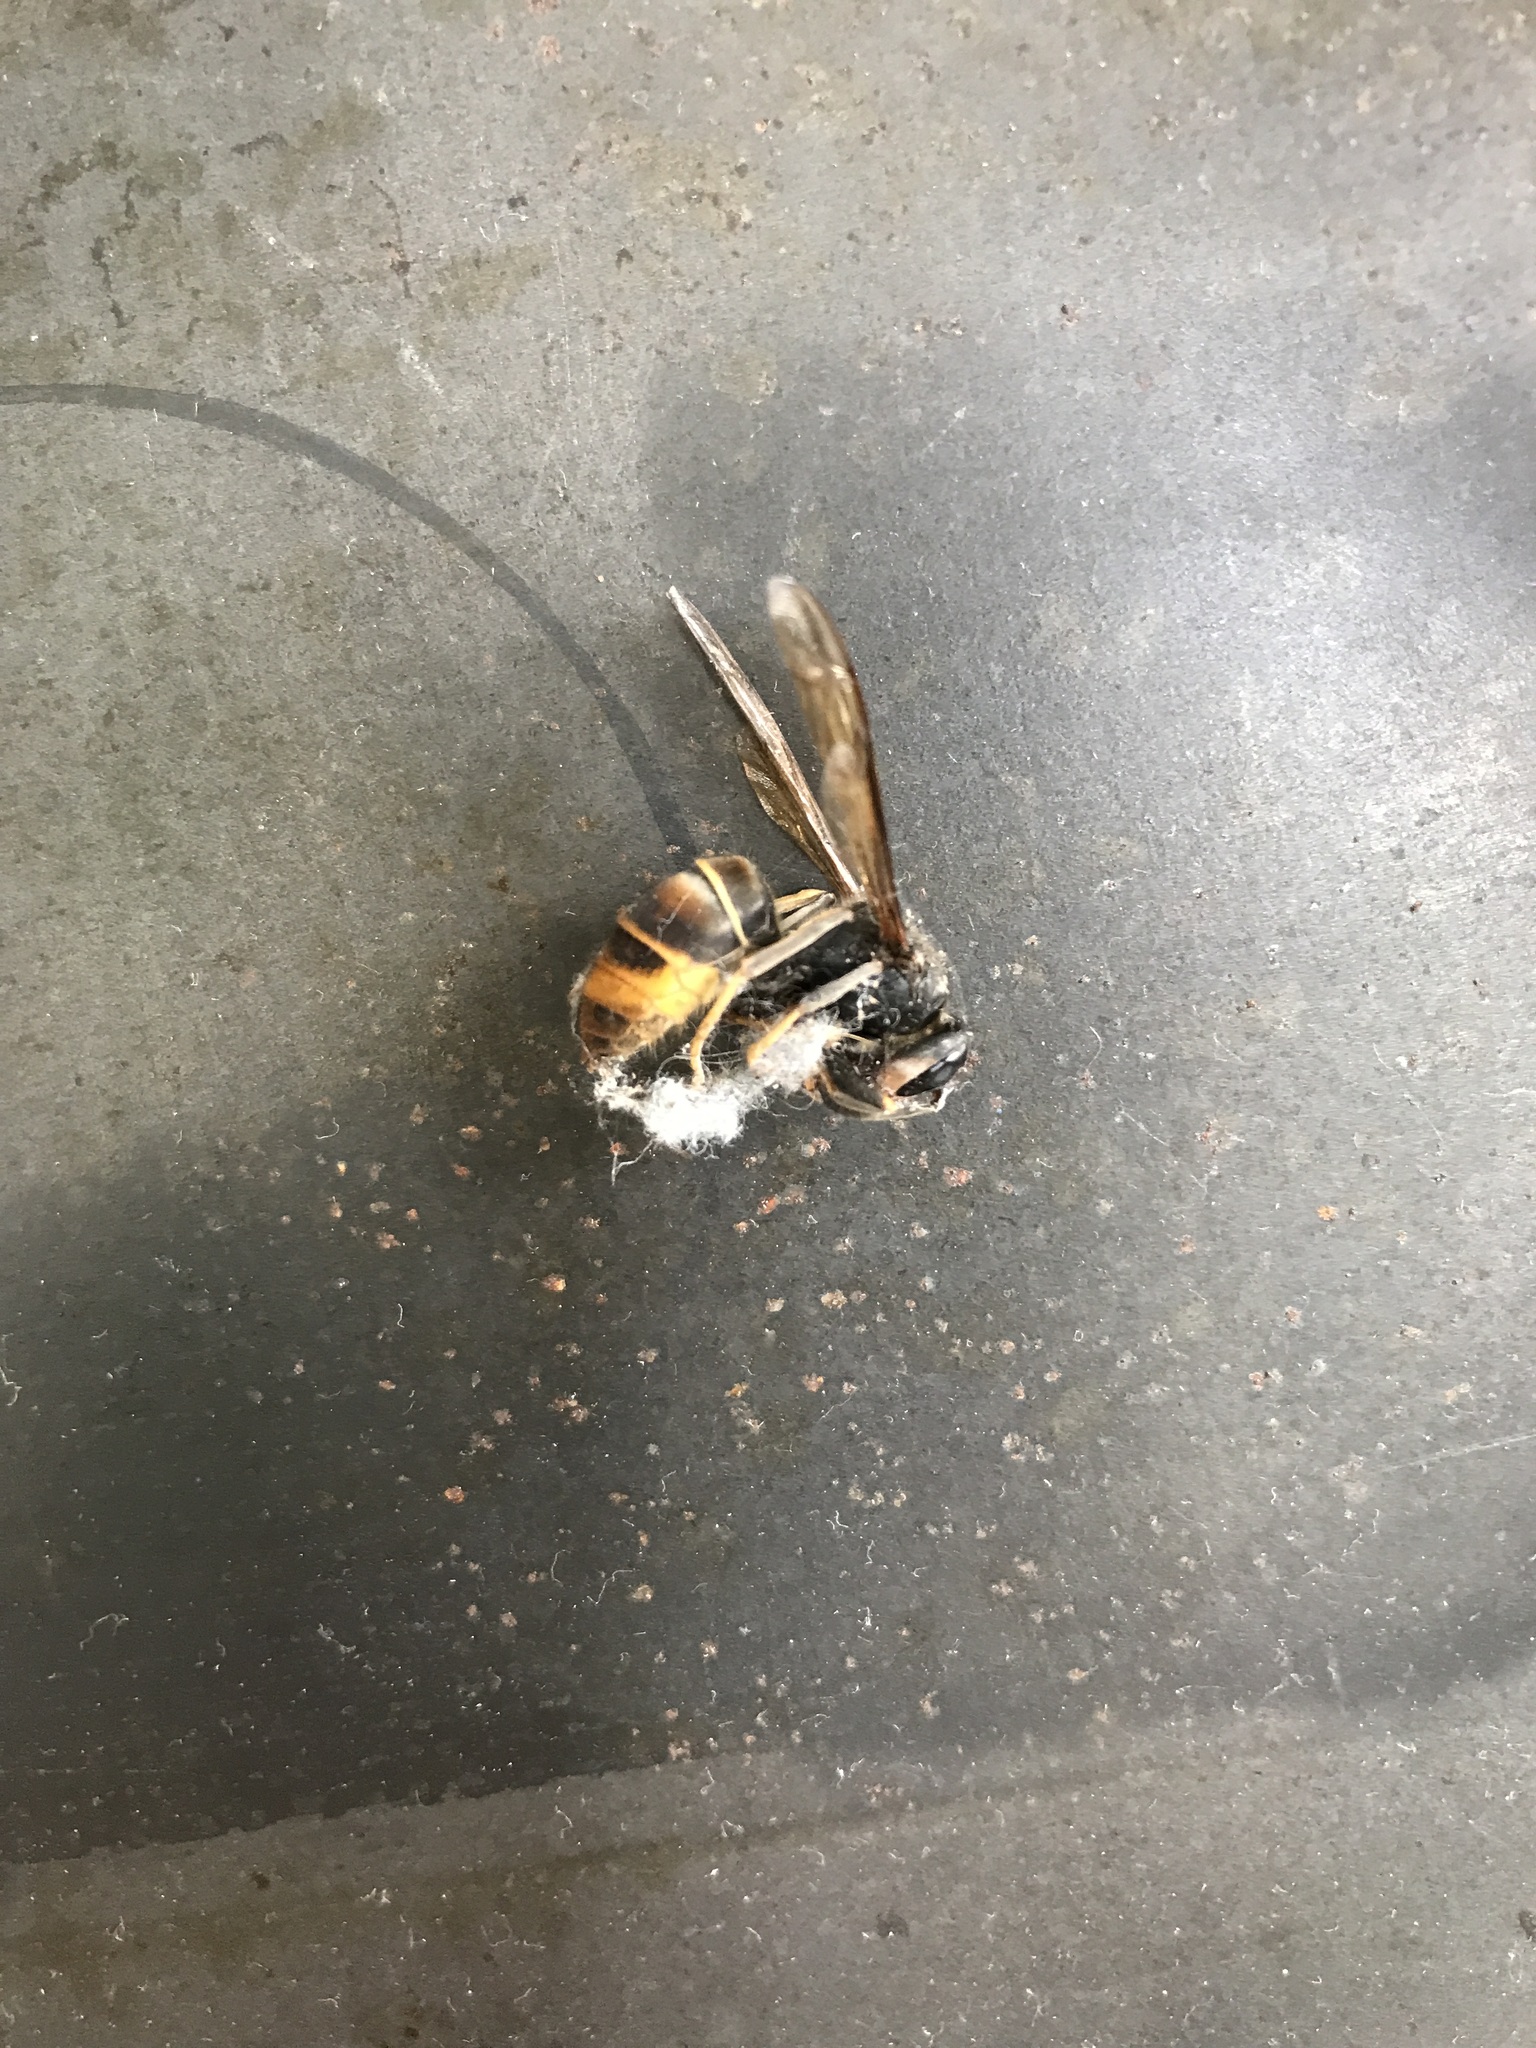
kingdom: Animalia
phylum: Arthropoda
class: Insecta
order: Hymenoptera
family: Vespidae
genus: Vespa
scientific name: Vespa velutina
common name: Asian hornet
